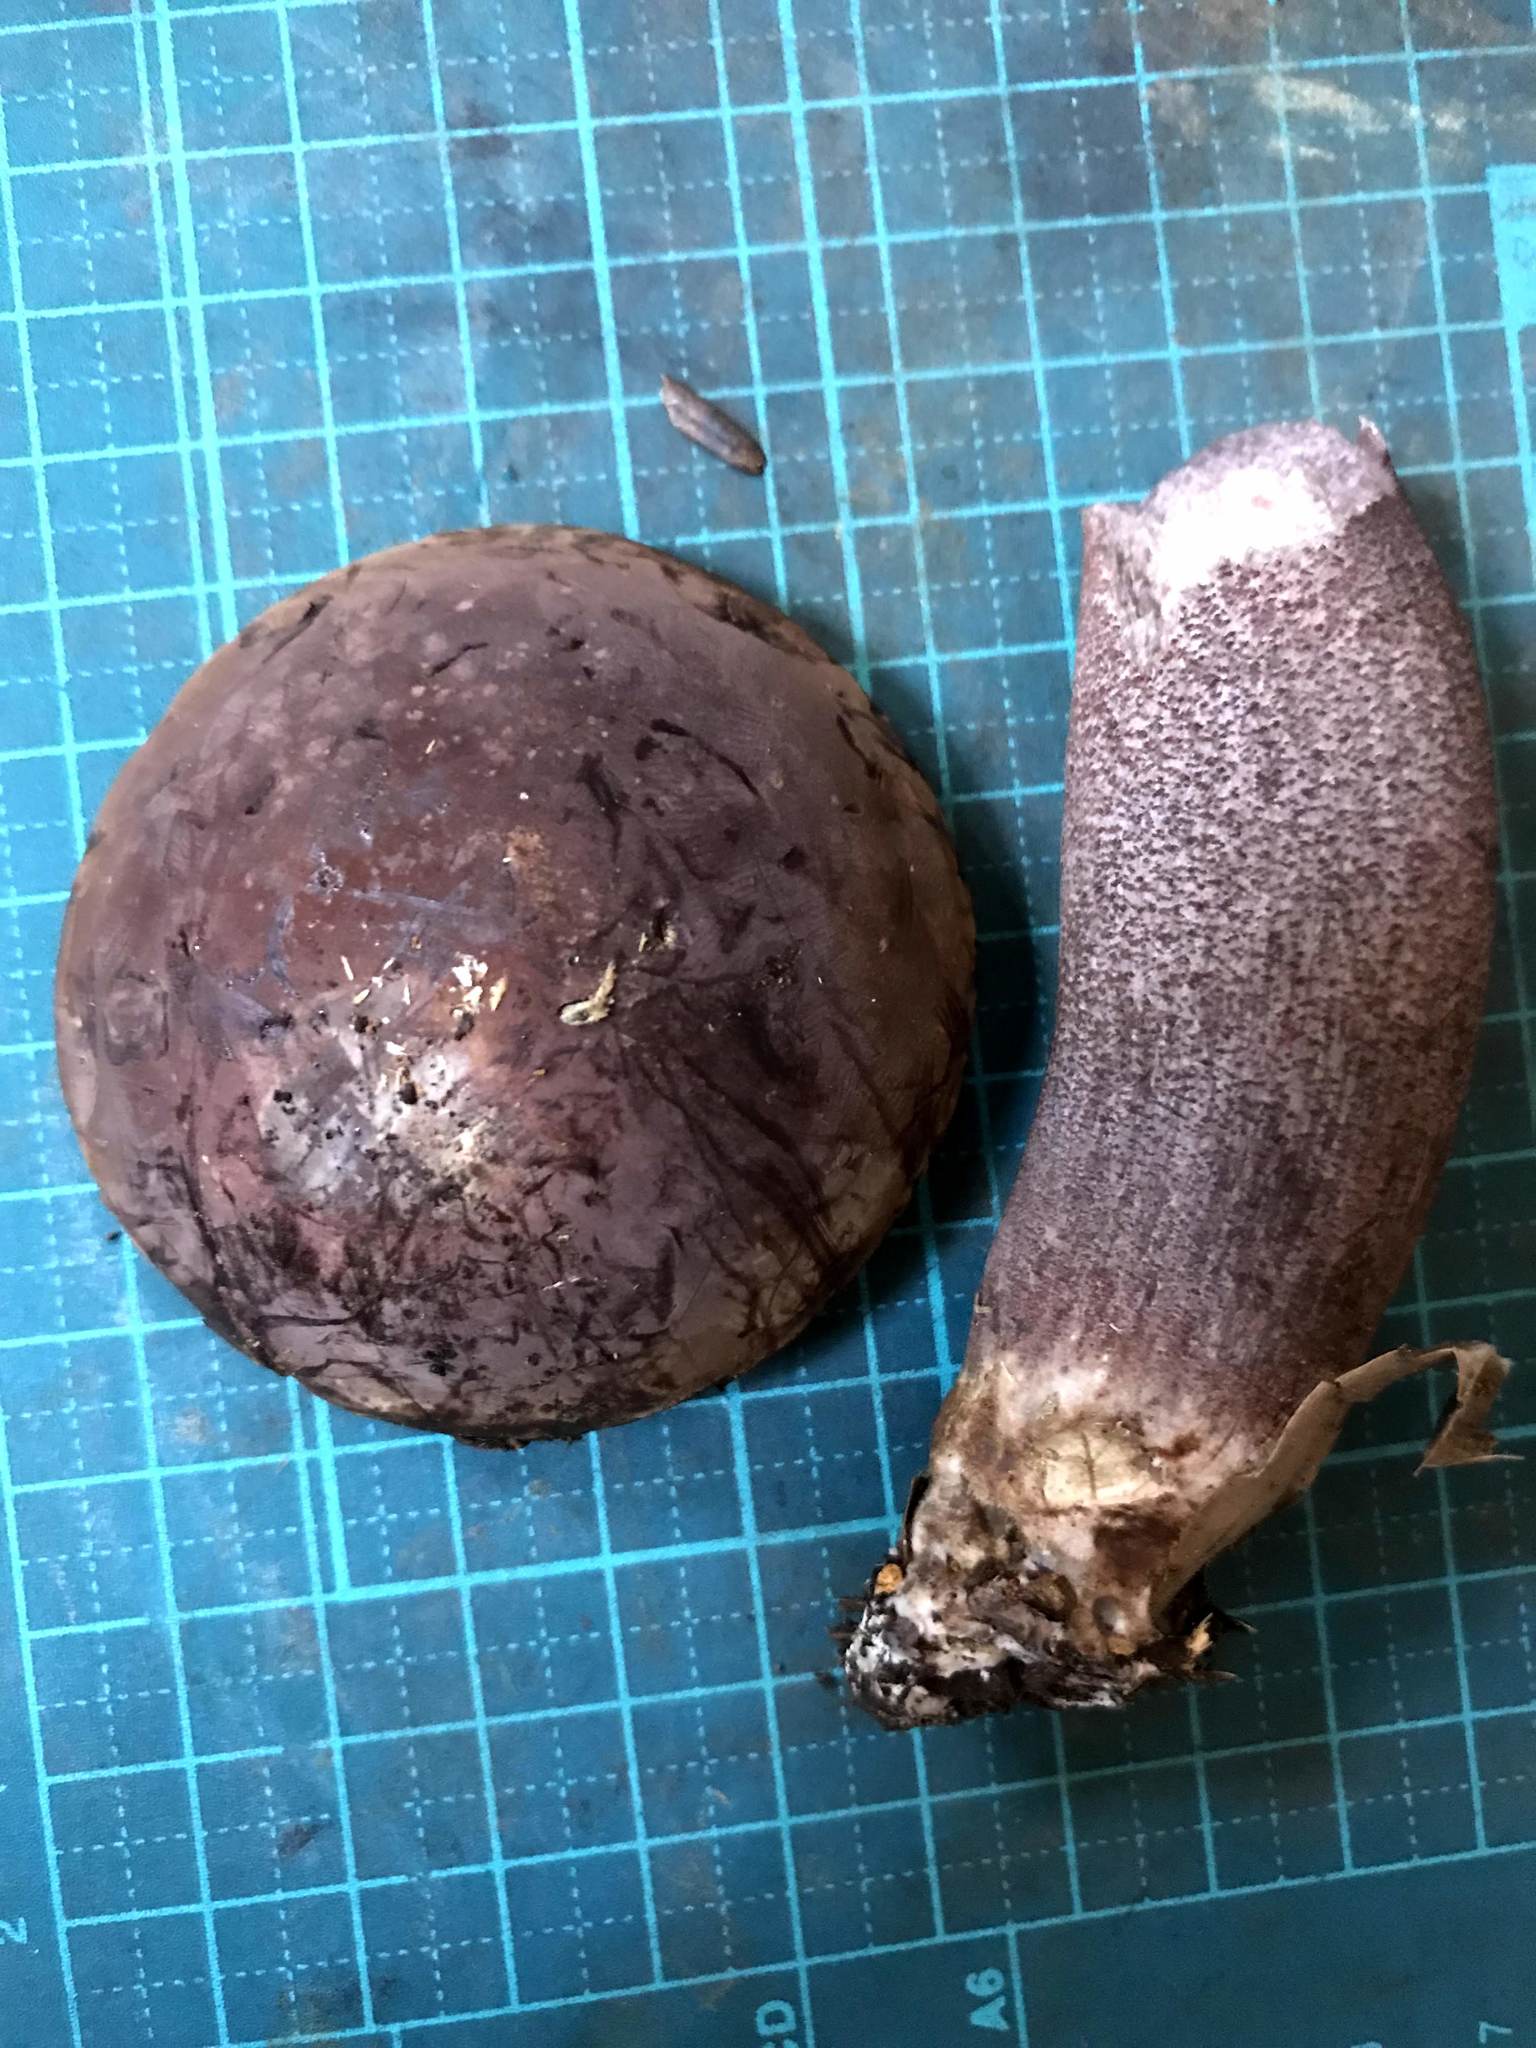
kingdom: Fungi
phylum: Basidiomycota
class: Agaricomycetes
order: Boletales
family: Boletaceae
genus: Sutorius
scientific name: Sutorius eximius
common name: Lilac-brown bolete
